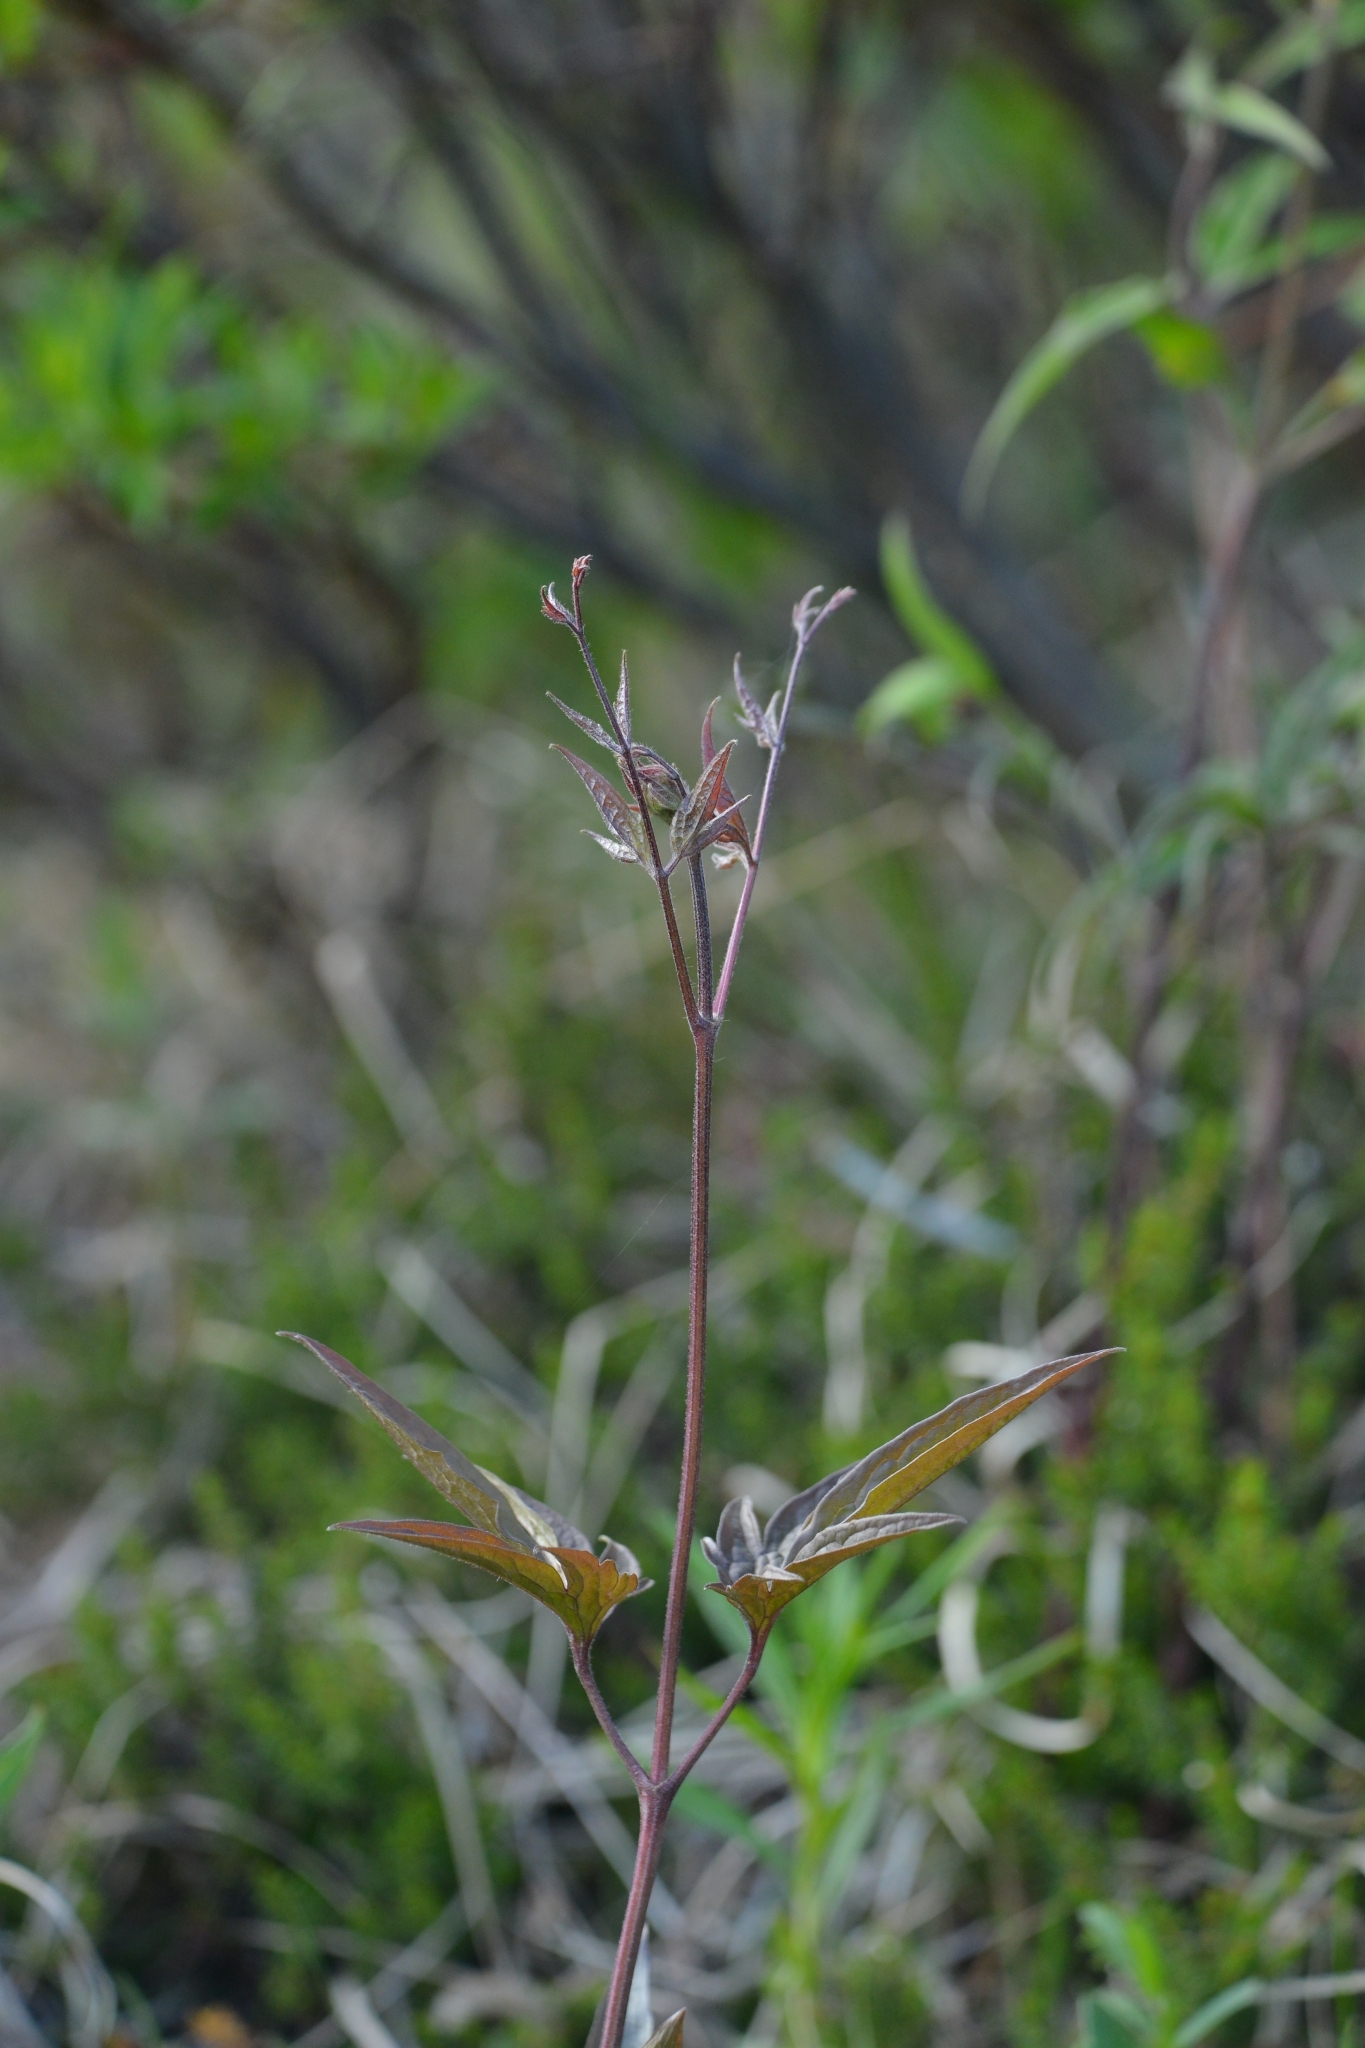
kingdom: Plantae
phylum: Tracheophyta
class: Magnoliopsida
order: Ranunculales
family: Ranunculaceae
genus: Clematis
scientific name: Clematis fusca
